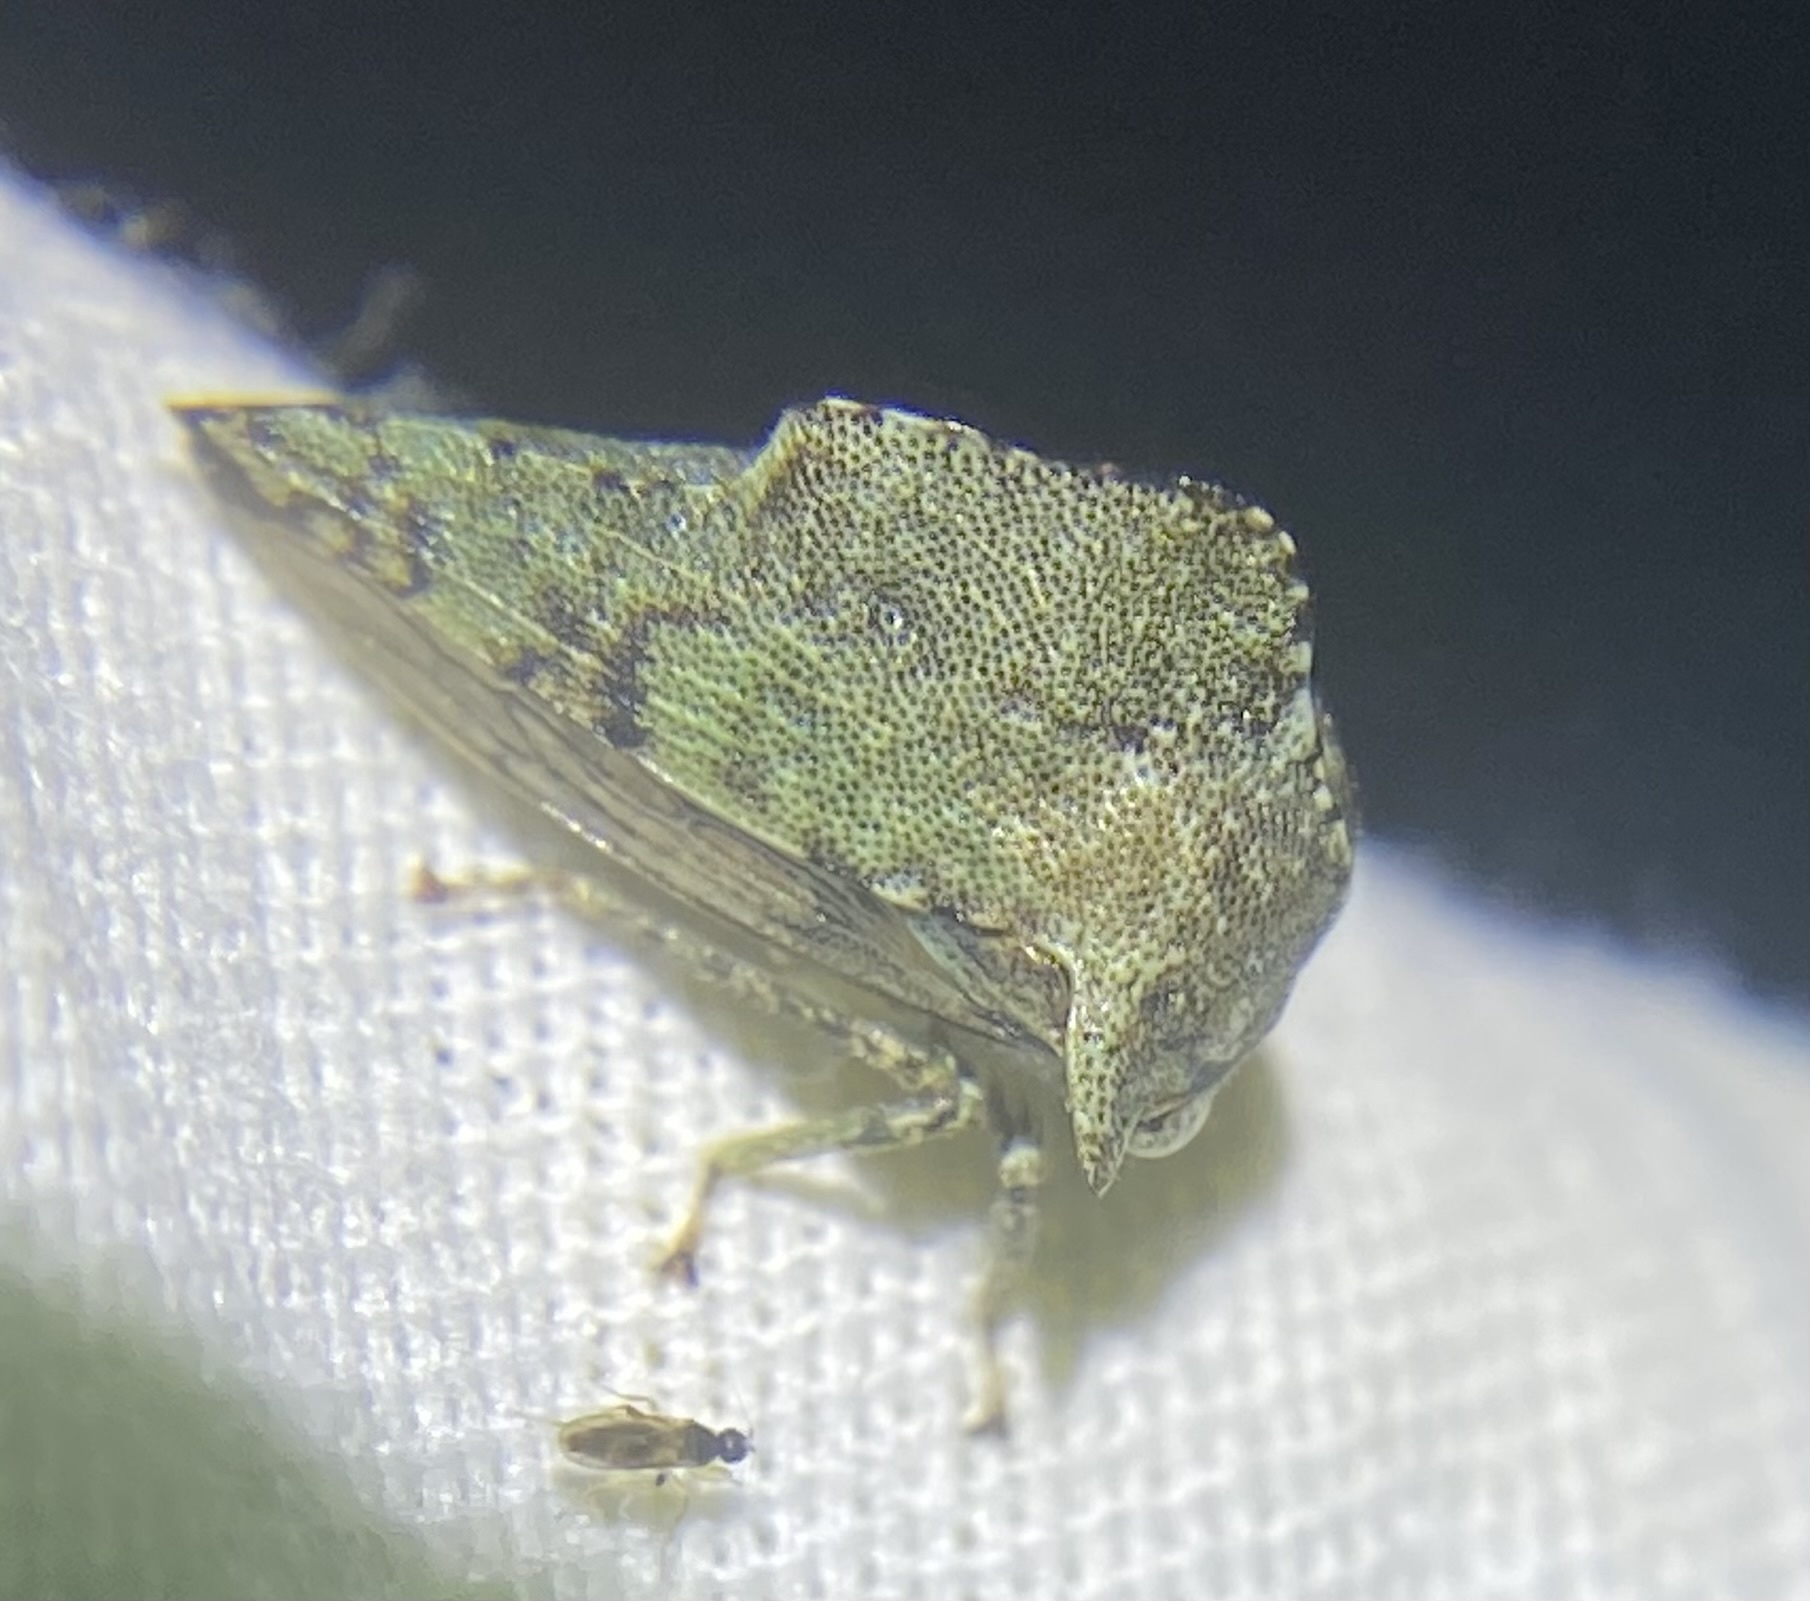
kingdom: Animalia
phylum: Arthropoda
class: Insecta
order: Hemiptera
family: Membracidae
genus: Heliria
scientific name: Heliria cornutula
